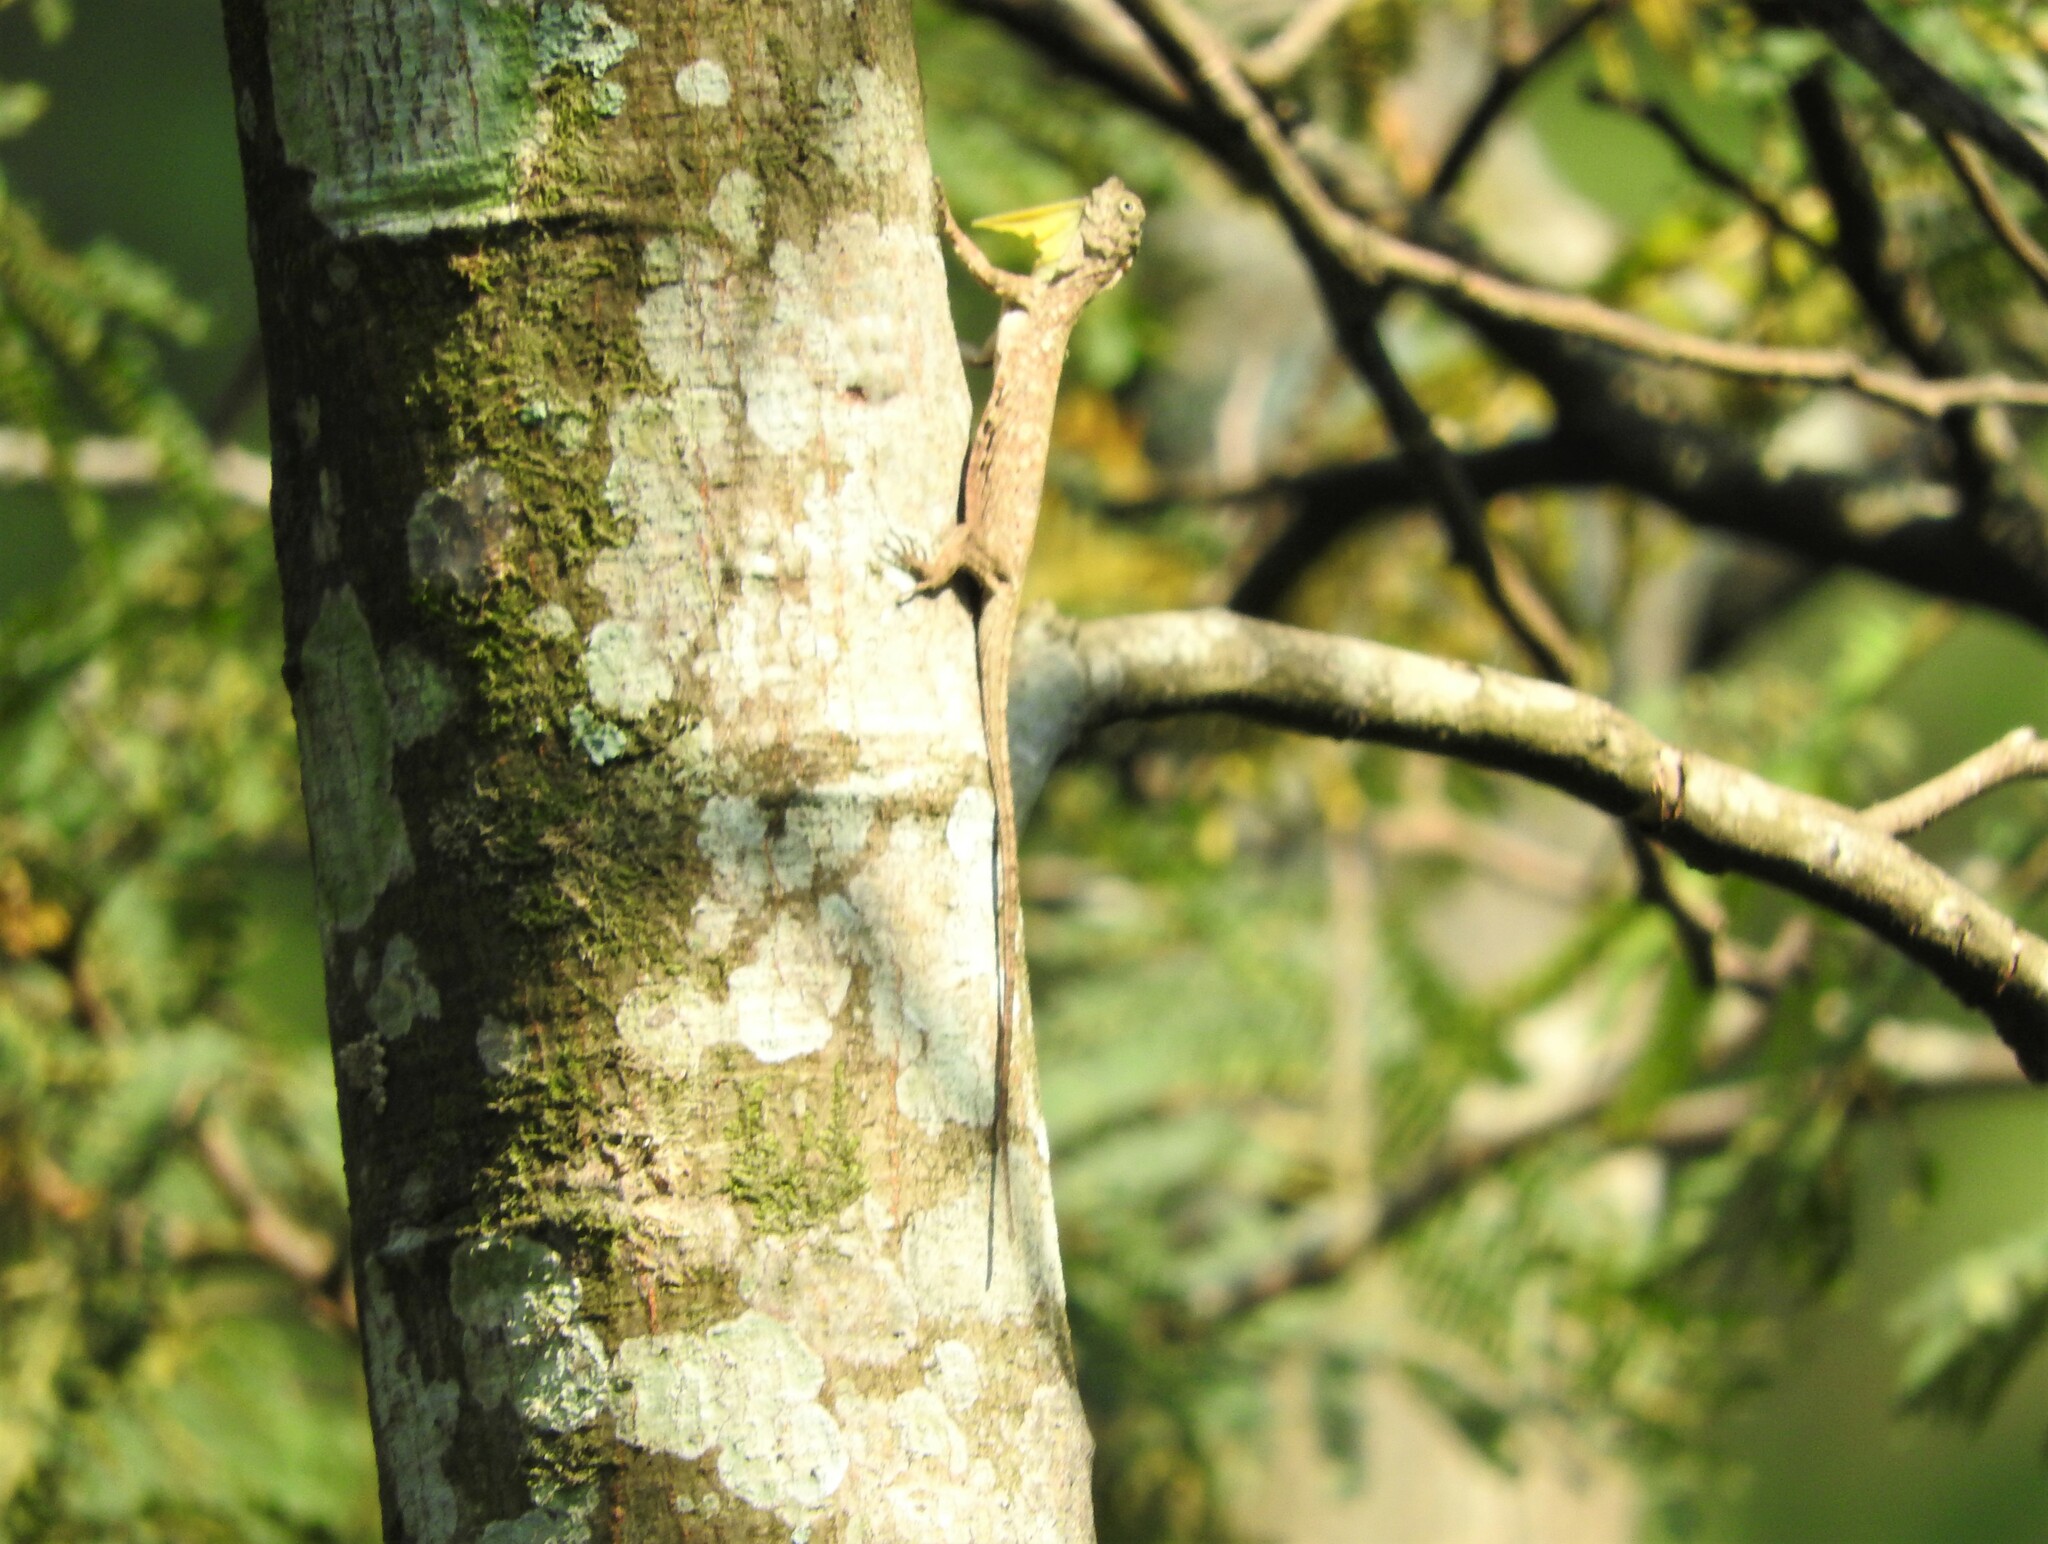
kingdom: Animalia
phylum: Chordata
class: Squamata
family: Agamidae
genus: Draco
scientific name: Draco volans
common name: Common flying dragon
